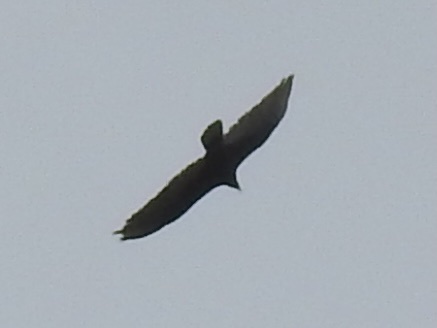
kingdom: Animalia
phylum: Chordata
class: Aves
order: Accipitriformes
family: Cathartidae
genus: Cathartes
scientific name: Cathartes aura
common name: Turkey vulture
